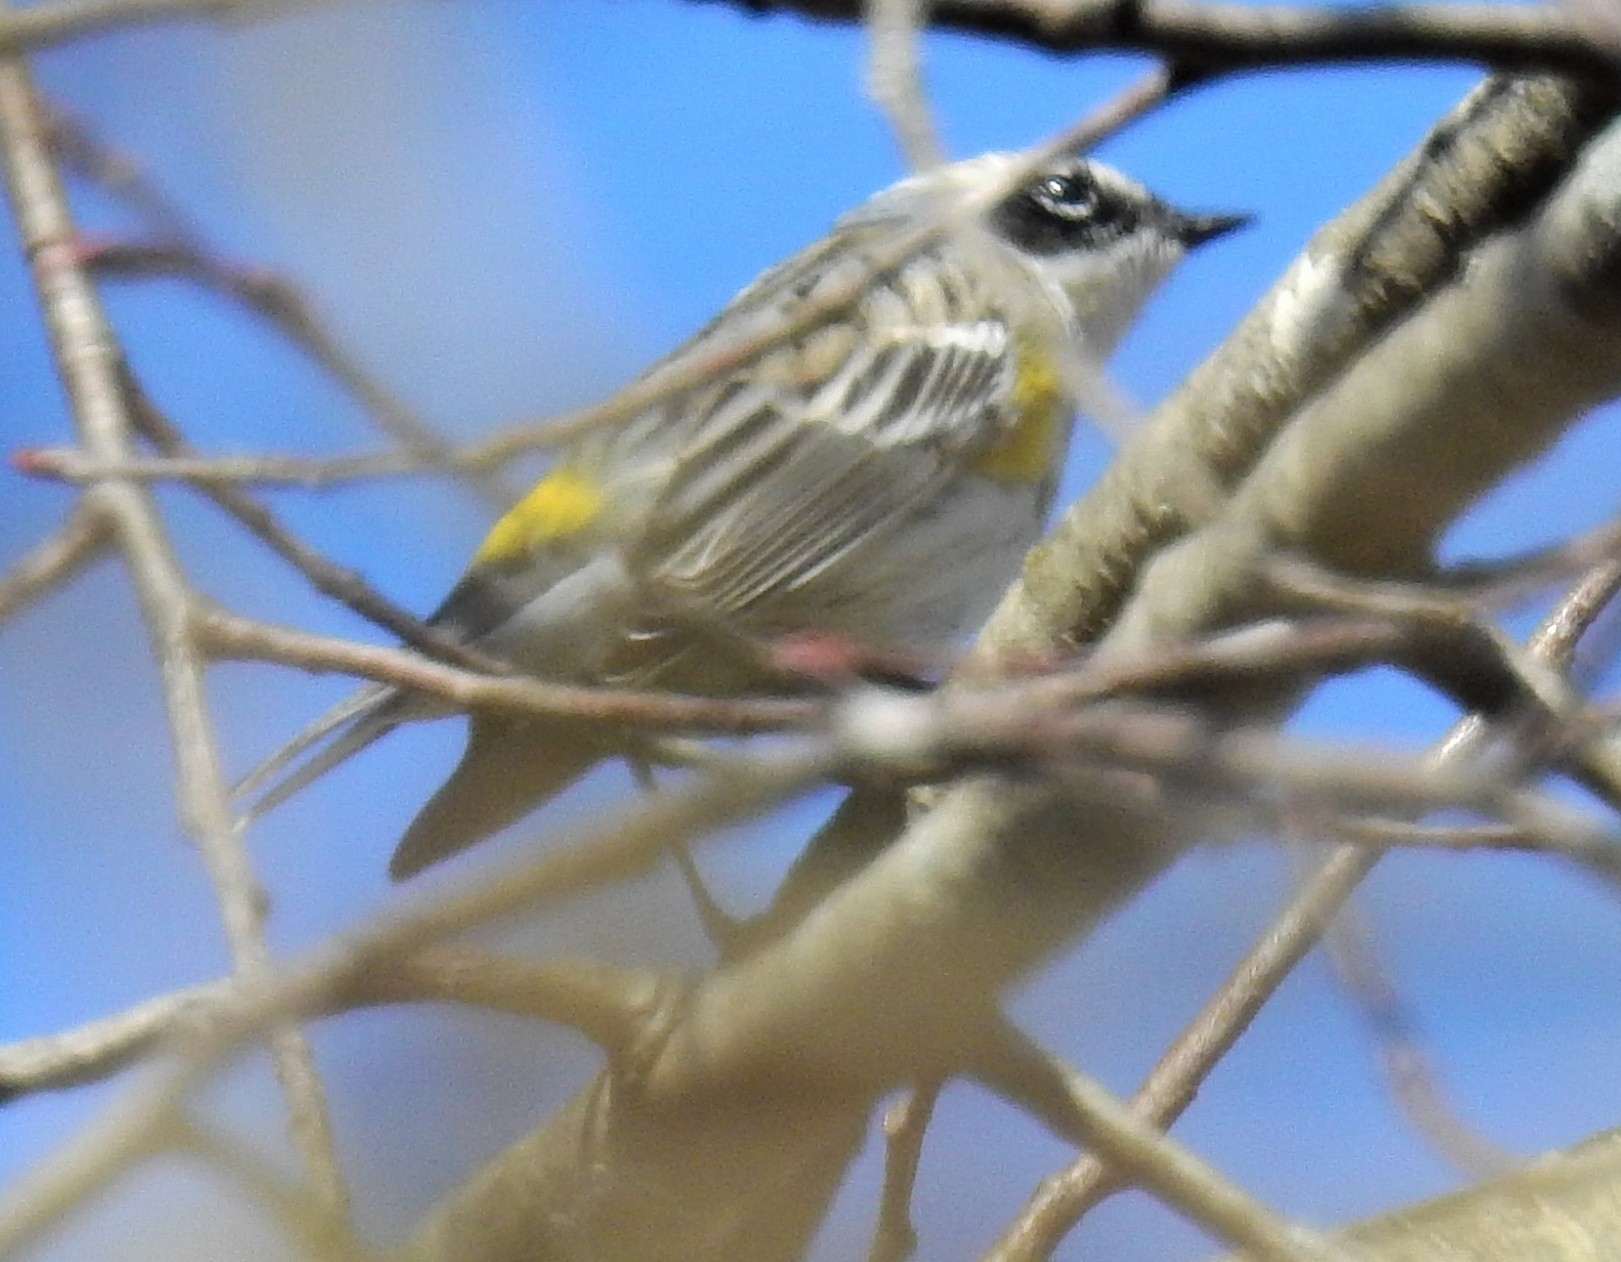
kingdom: Animalia
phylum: Chordata
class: Aves
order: Passeriformes
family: Parulidae
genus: Setophaga
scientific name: Setophaga coronata
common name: Myrtle warbler
